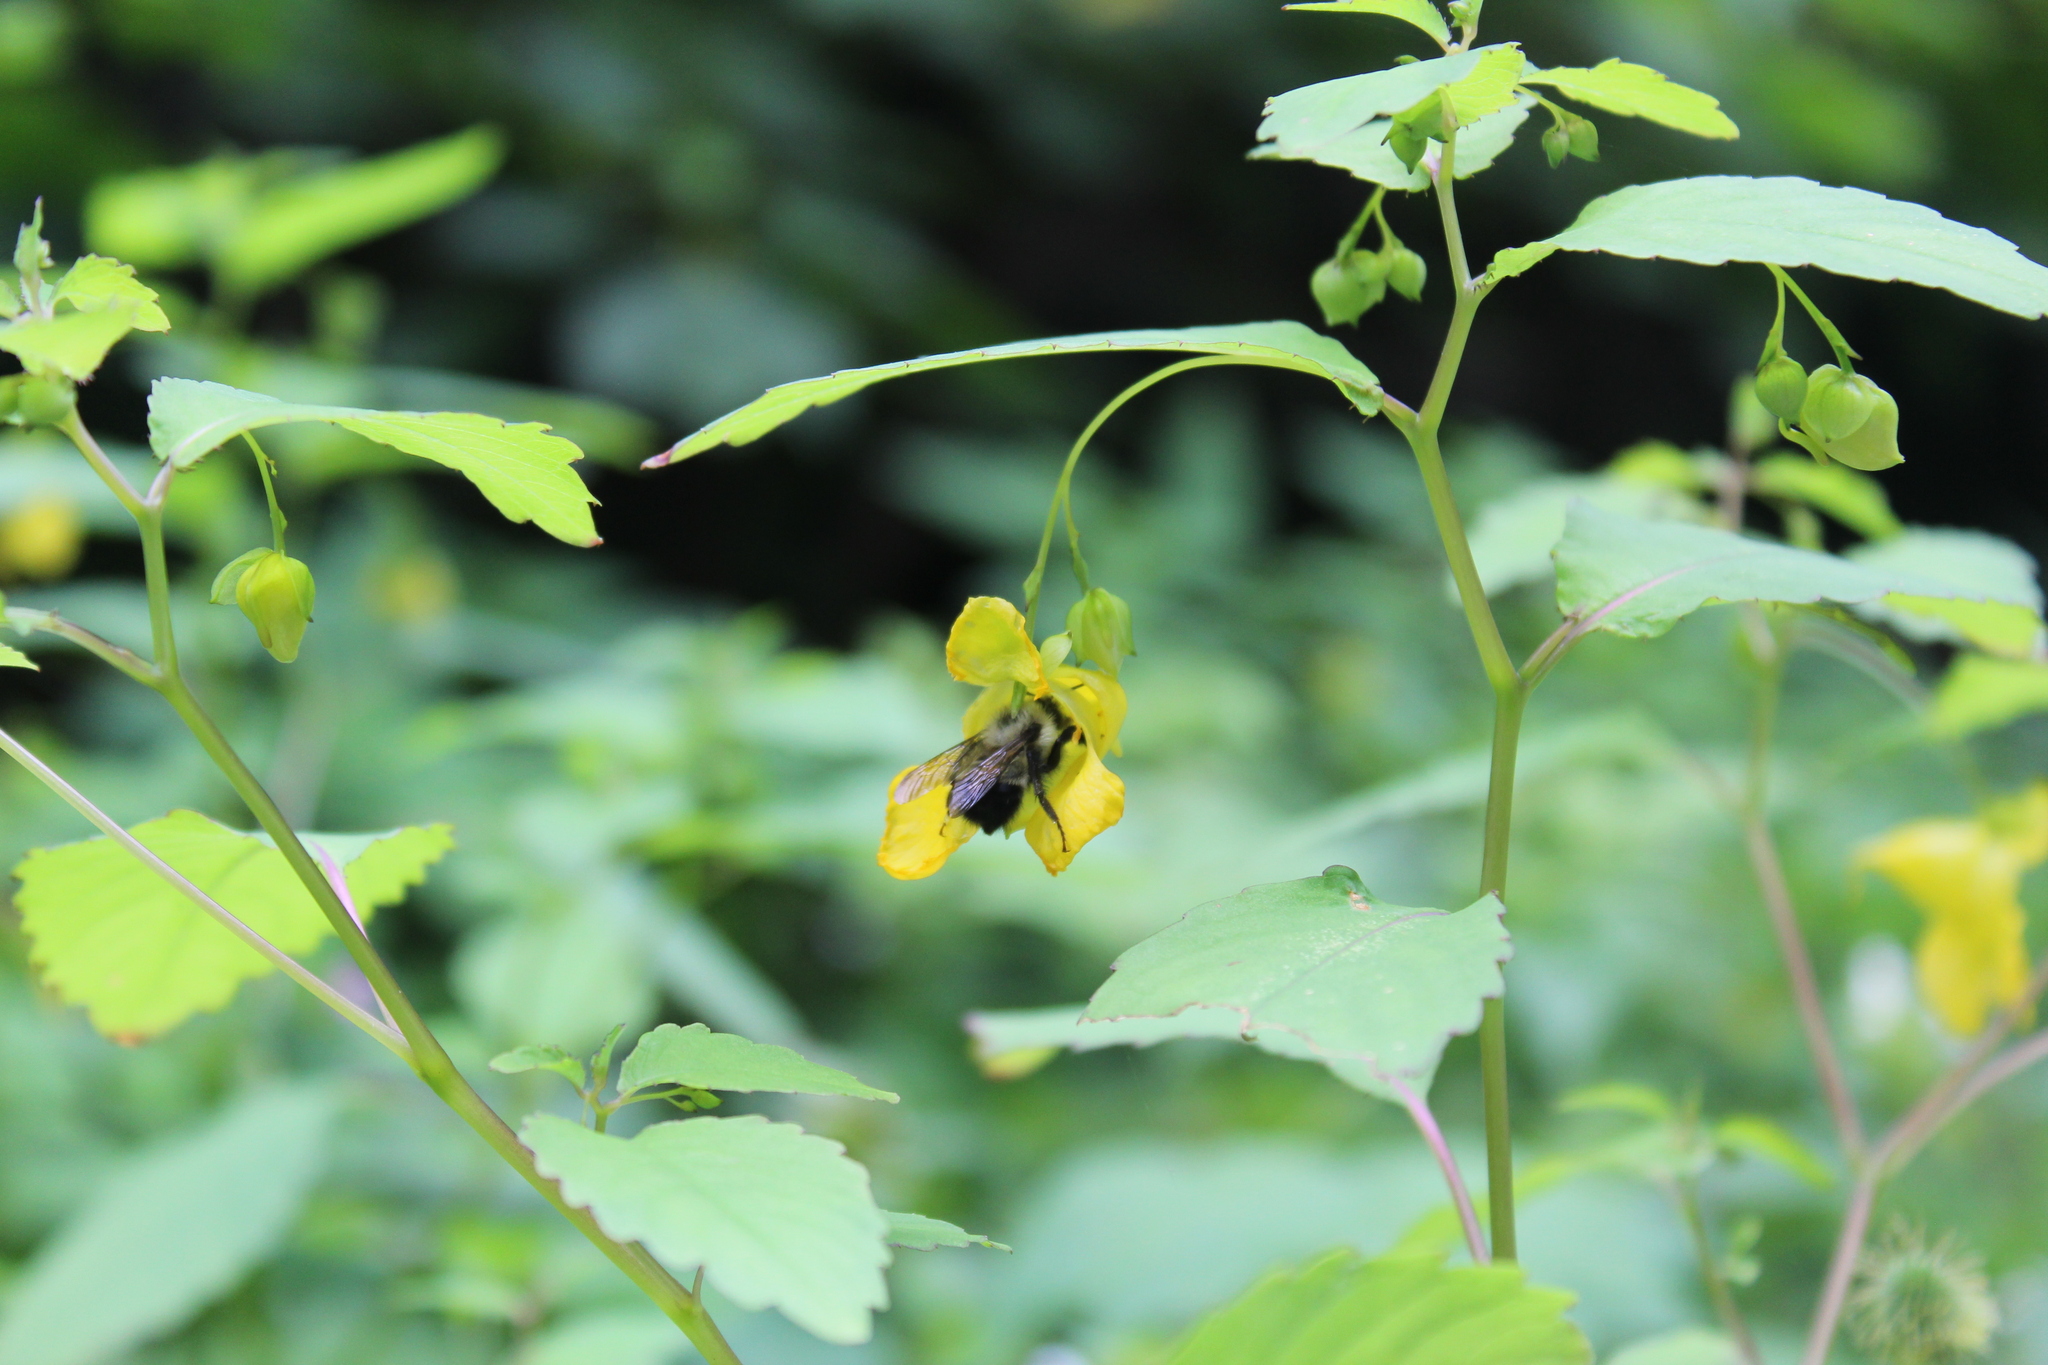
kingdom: Animalia
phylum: Arthropoda
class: Insecta
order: Hymenoptera
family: Apidae
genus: Pyrobombus
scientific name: Pyrobombus
